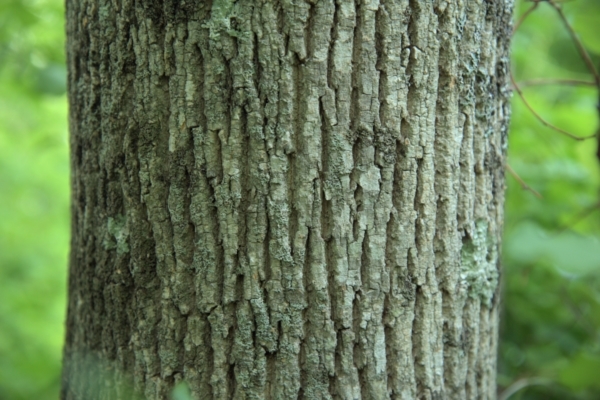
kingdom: Plantae
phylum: Tracheophyta
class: Magnoliopsida
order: Lamiales
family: Oleaceae
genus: Fraxinus
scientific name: Fraxinus americana
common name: White ash
